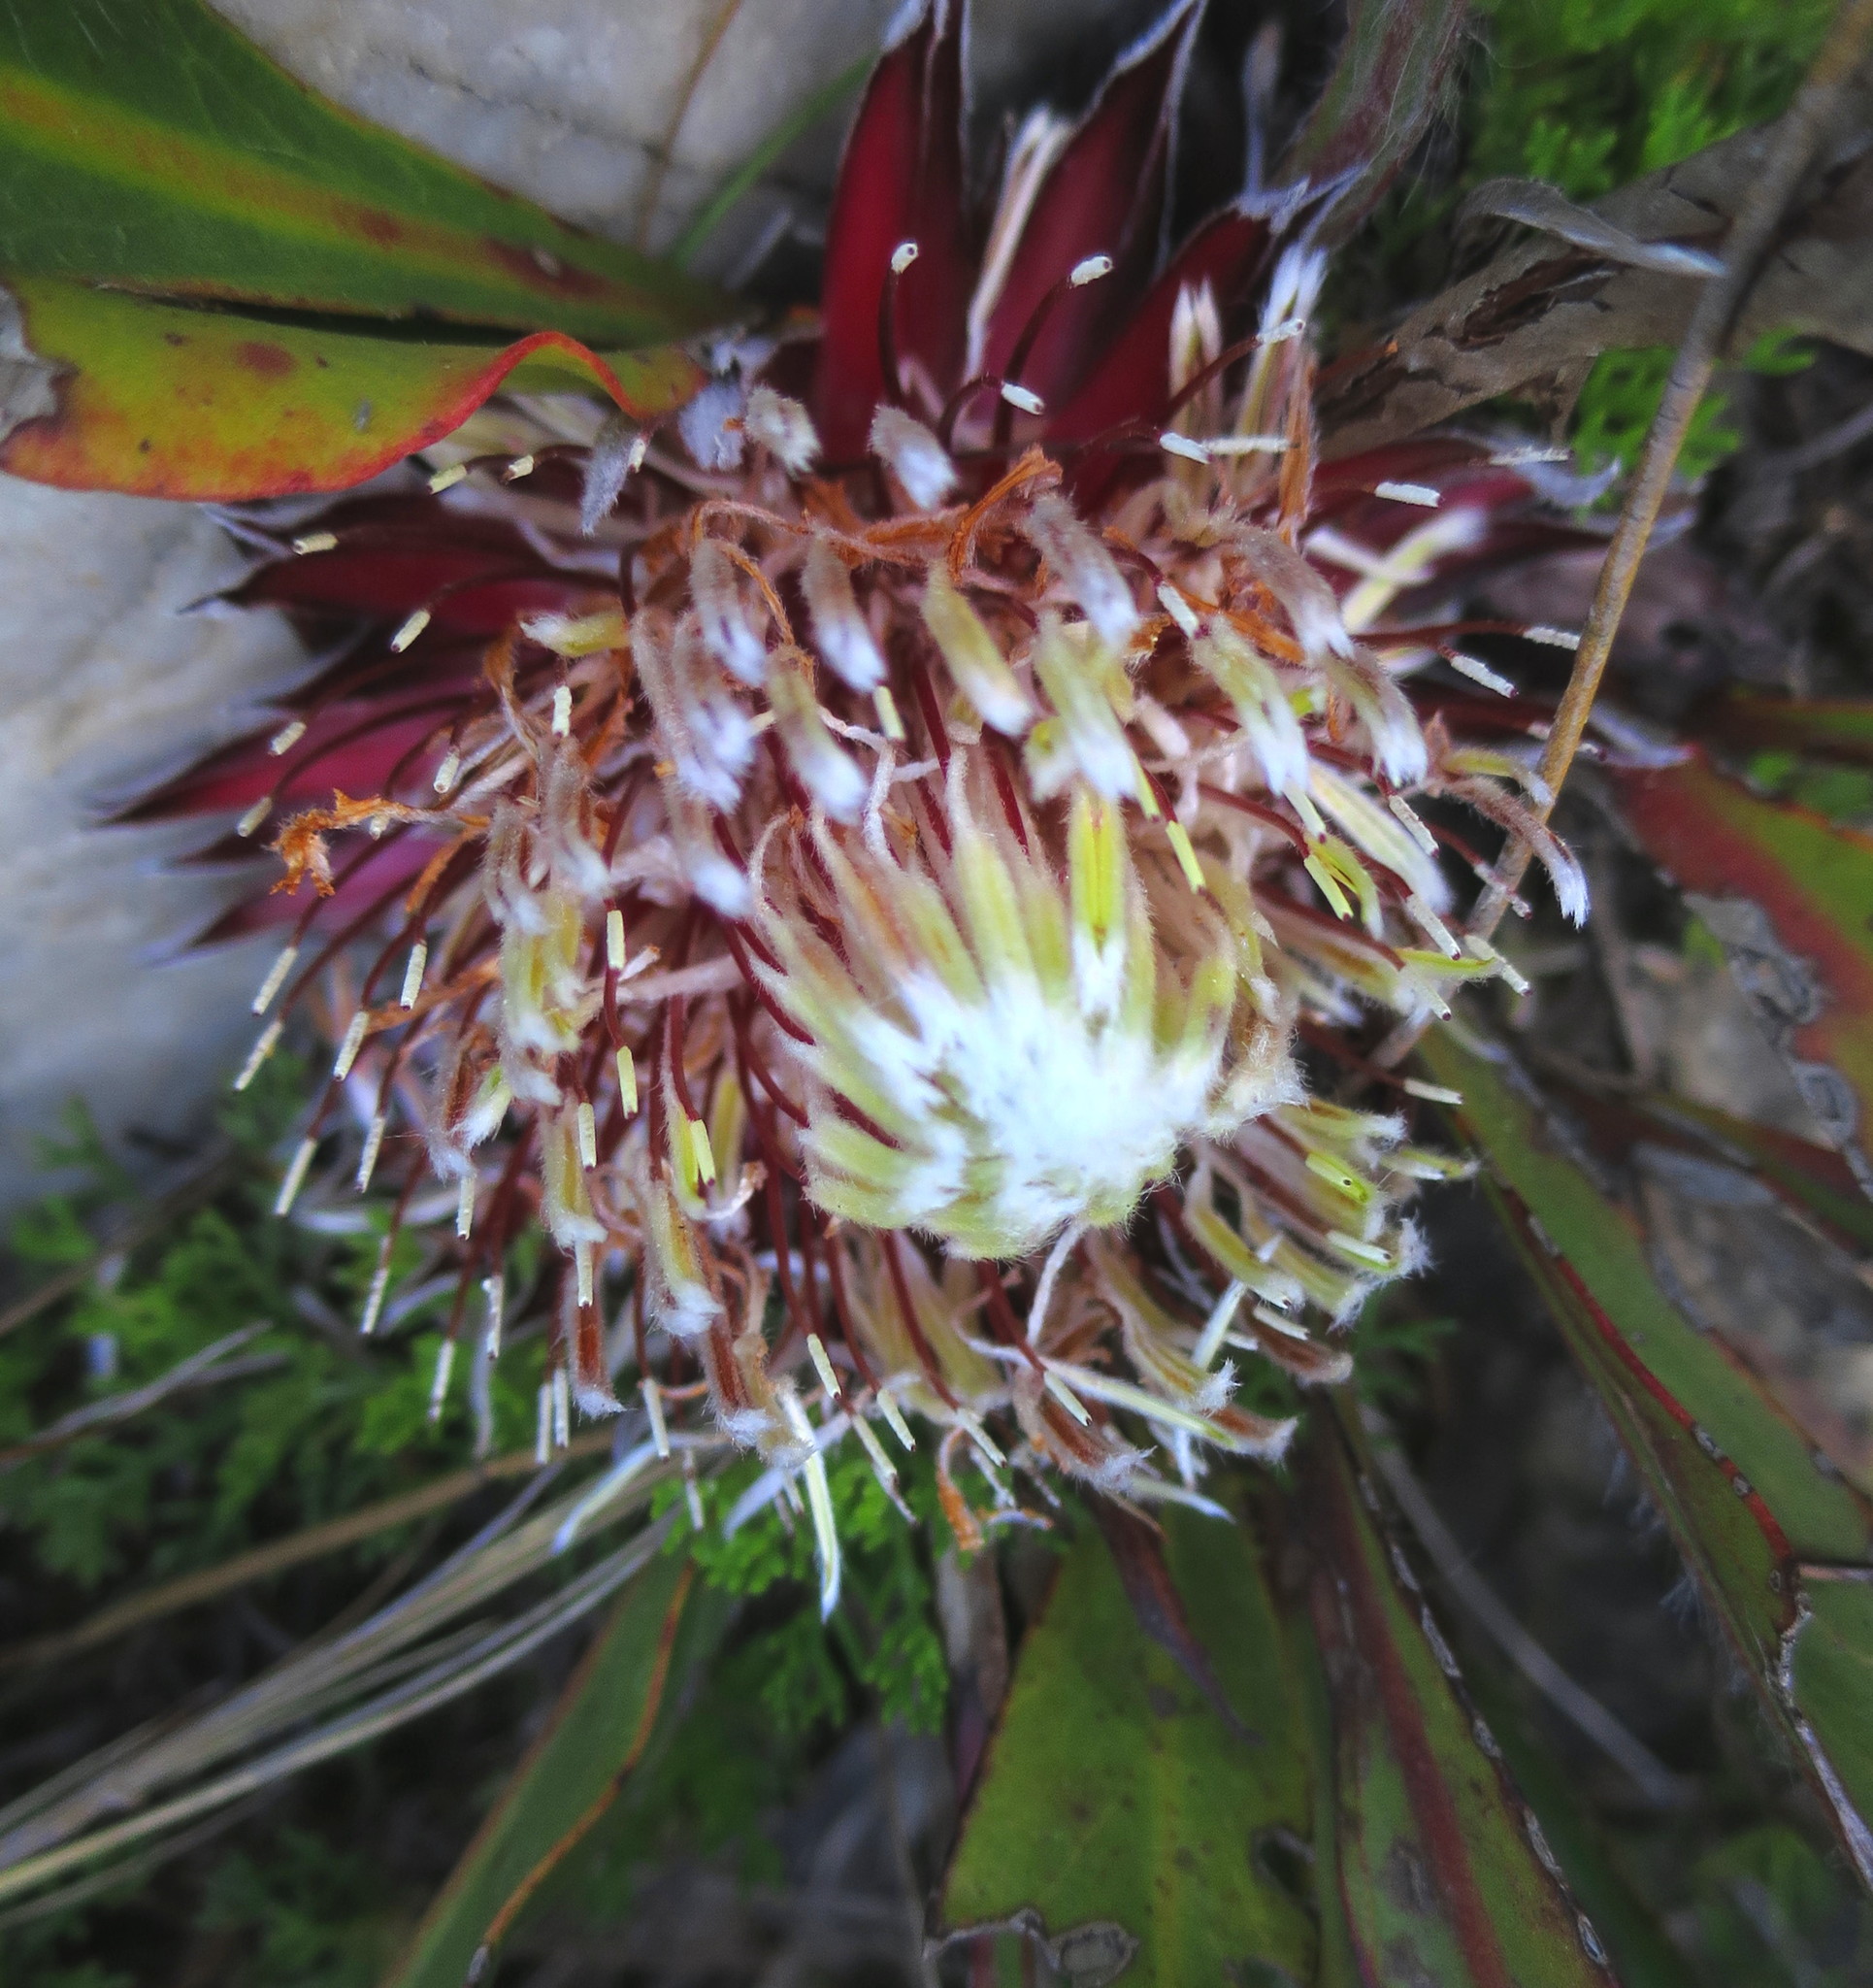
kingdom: Plantae
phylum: Tracheophyta
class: Magnoliopsida
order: Proteales
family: Proteaceae
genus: Protea
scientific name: Protea scolopendriifolia
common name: Harts-tongue-fern sugarbush
